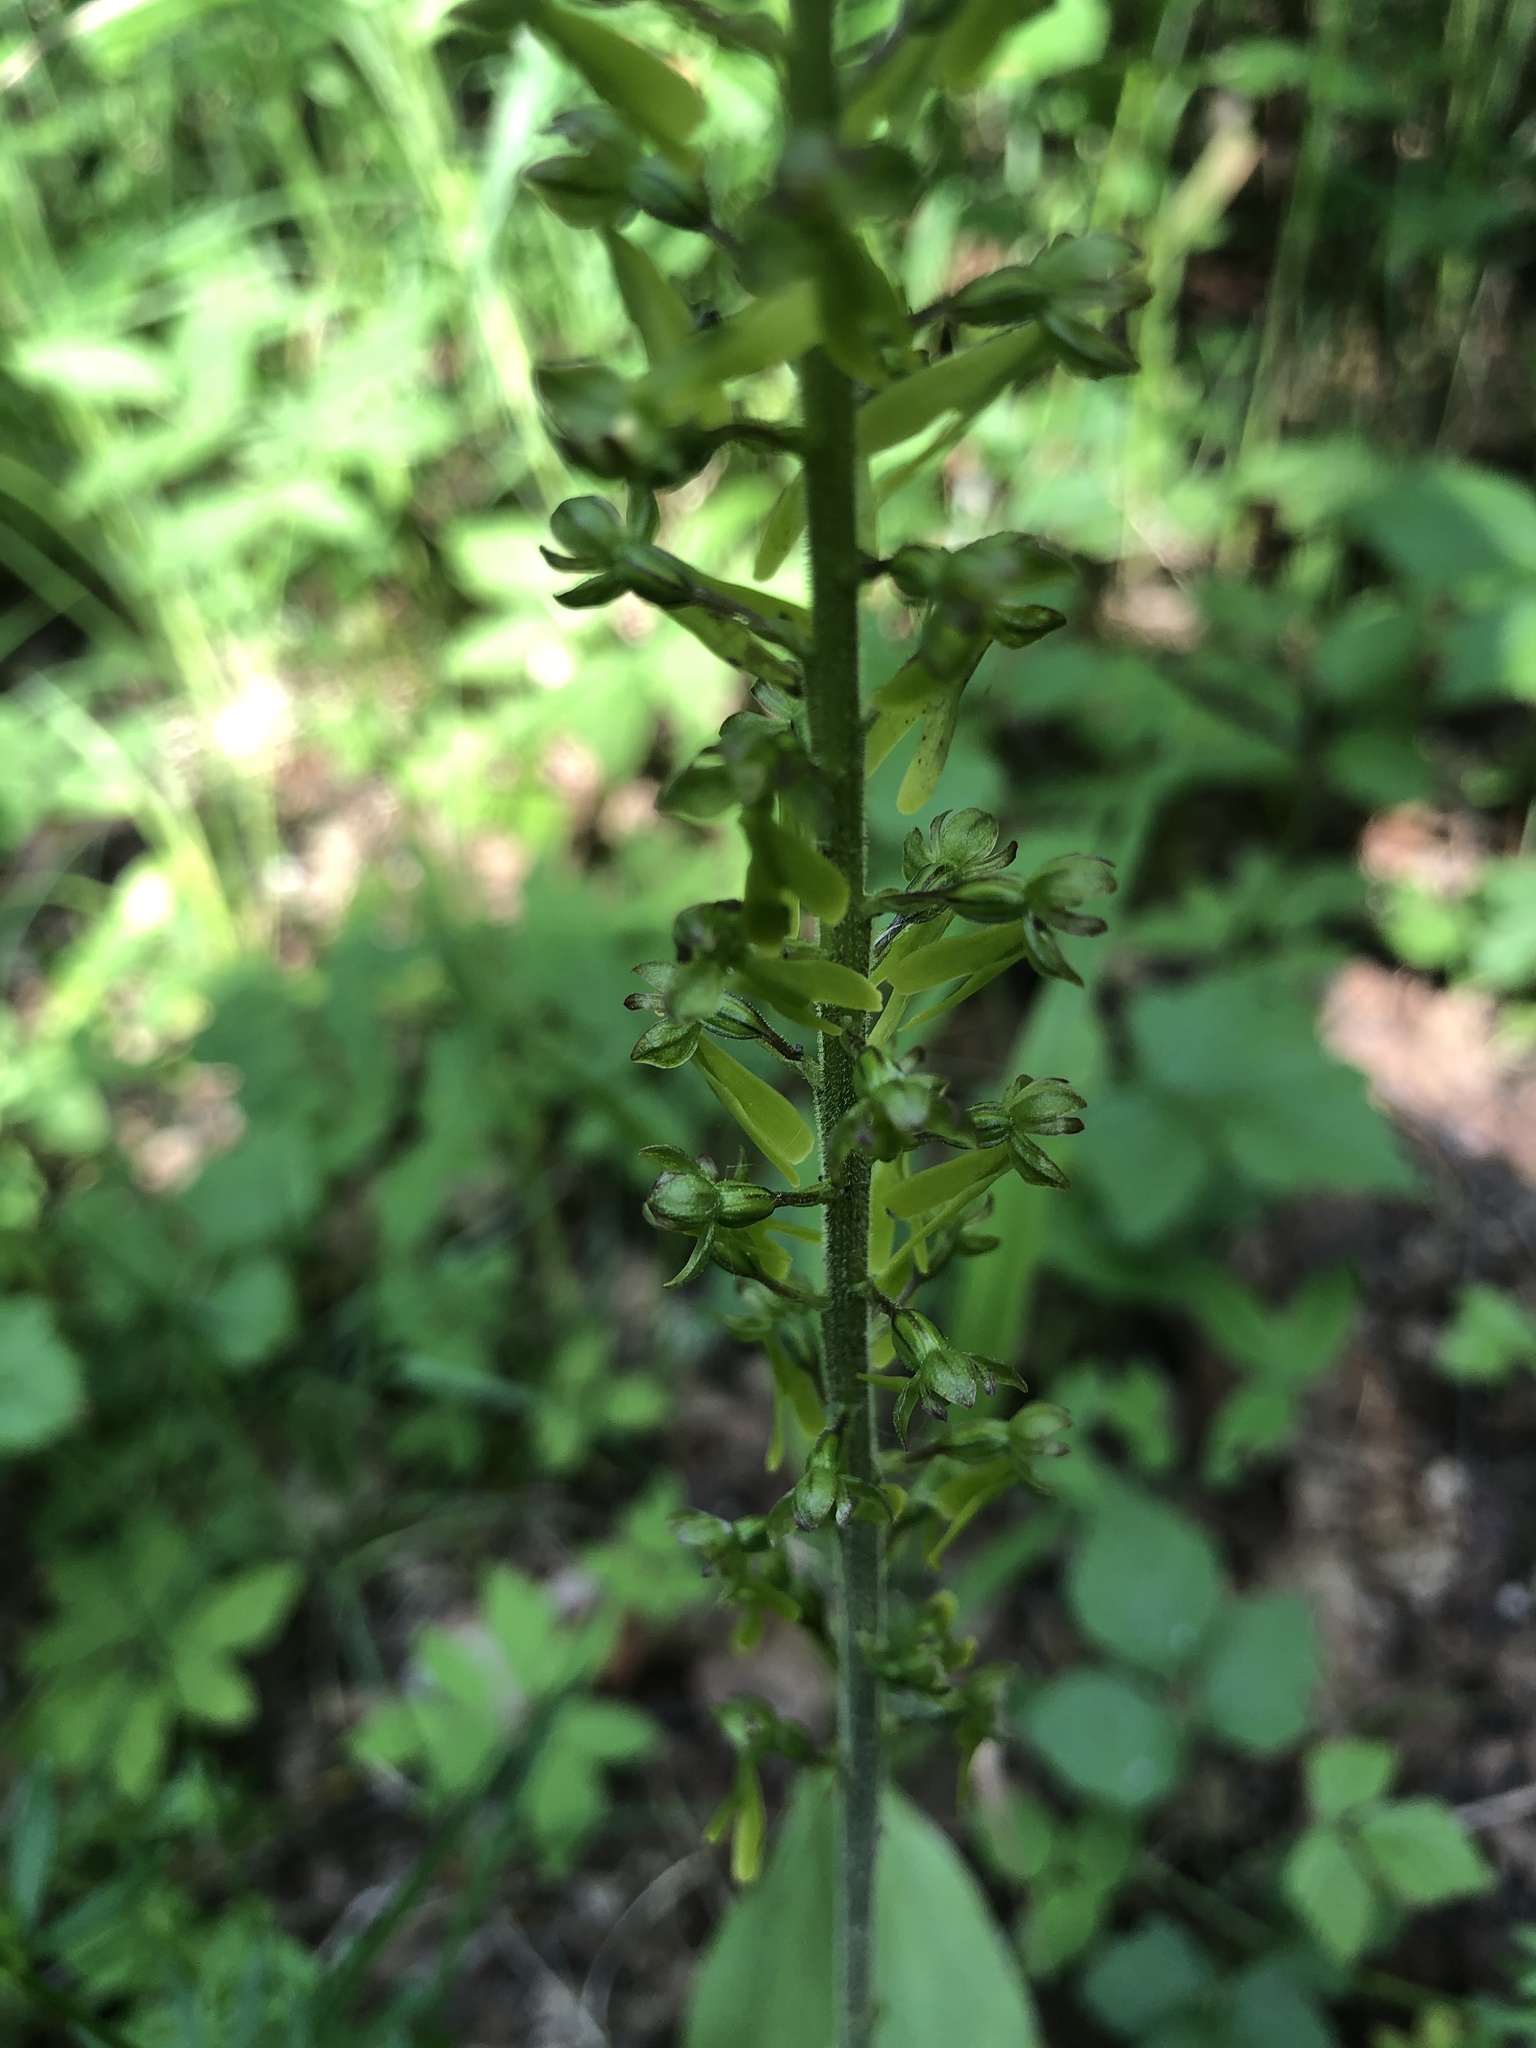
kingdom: Plantae
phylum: Tracheophyta
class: Liliopsida
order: Asparagales
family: Orchidaceae
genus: Neottia
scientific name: Neottia ovata
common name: Common twayblade
